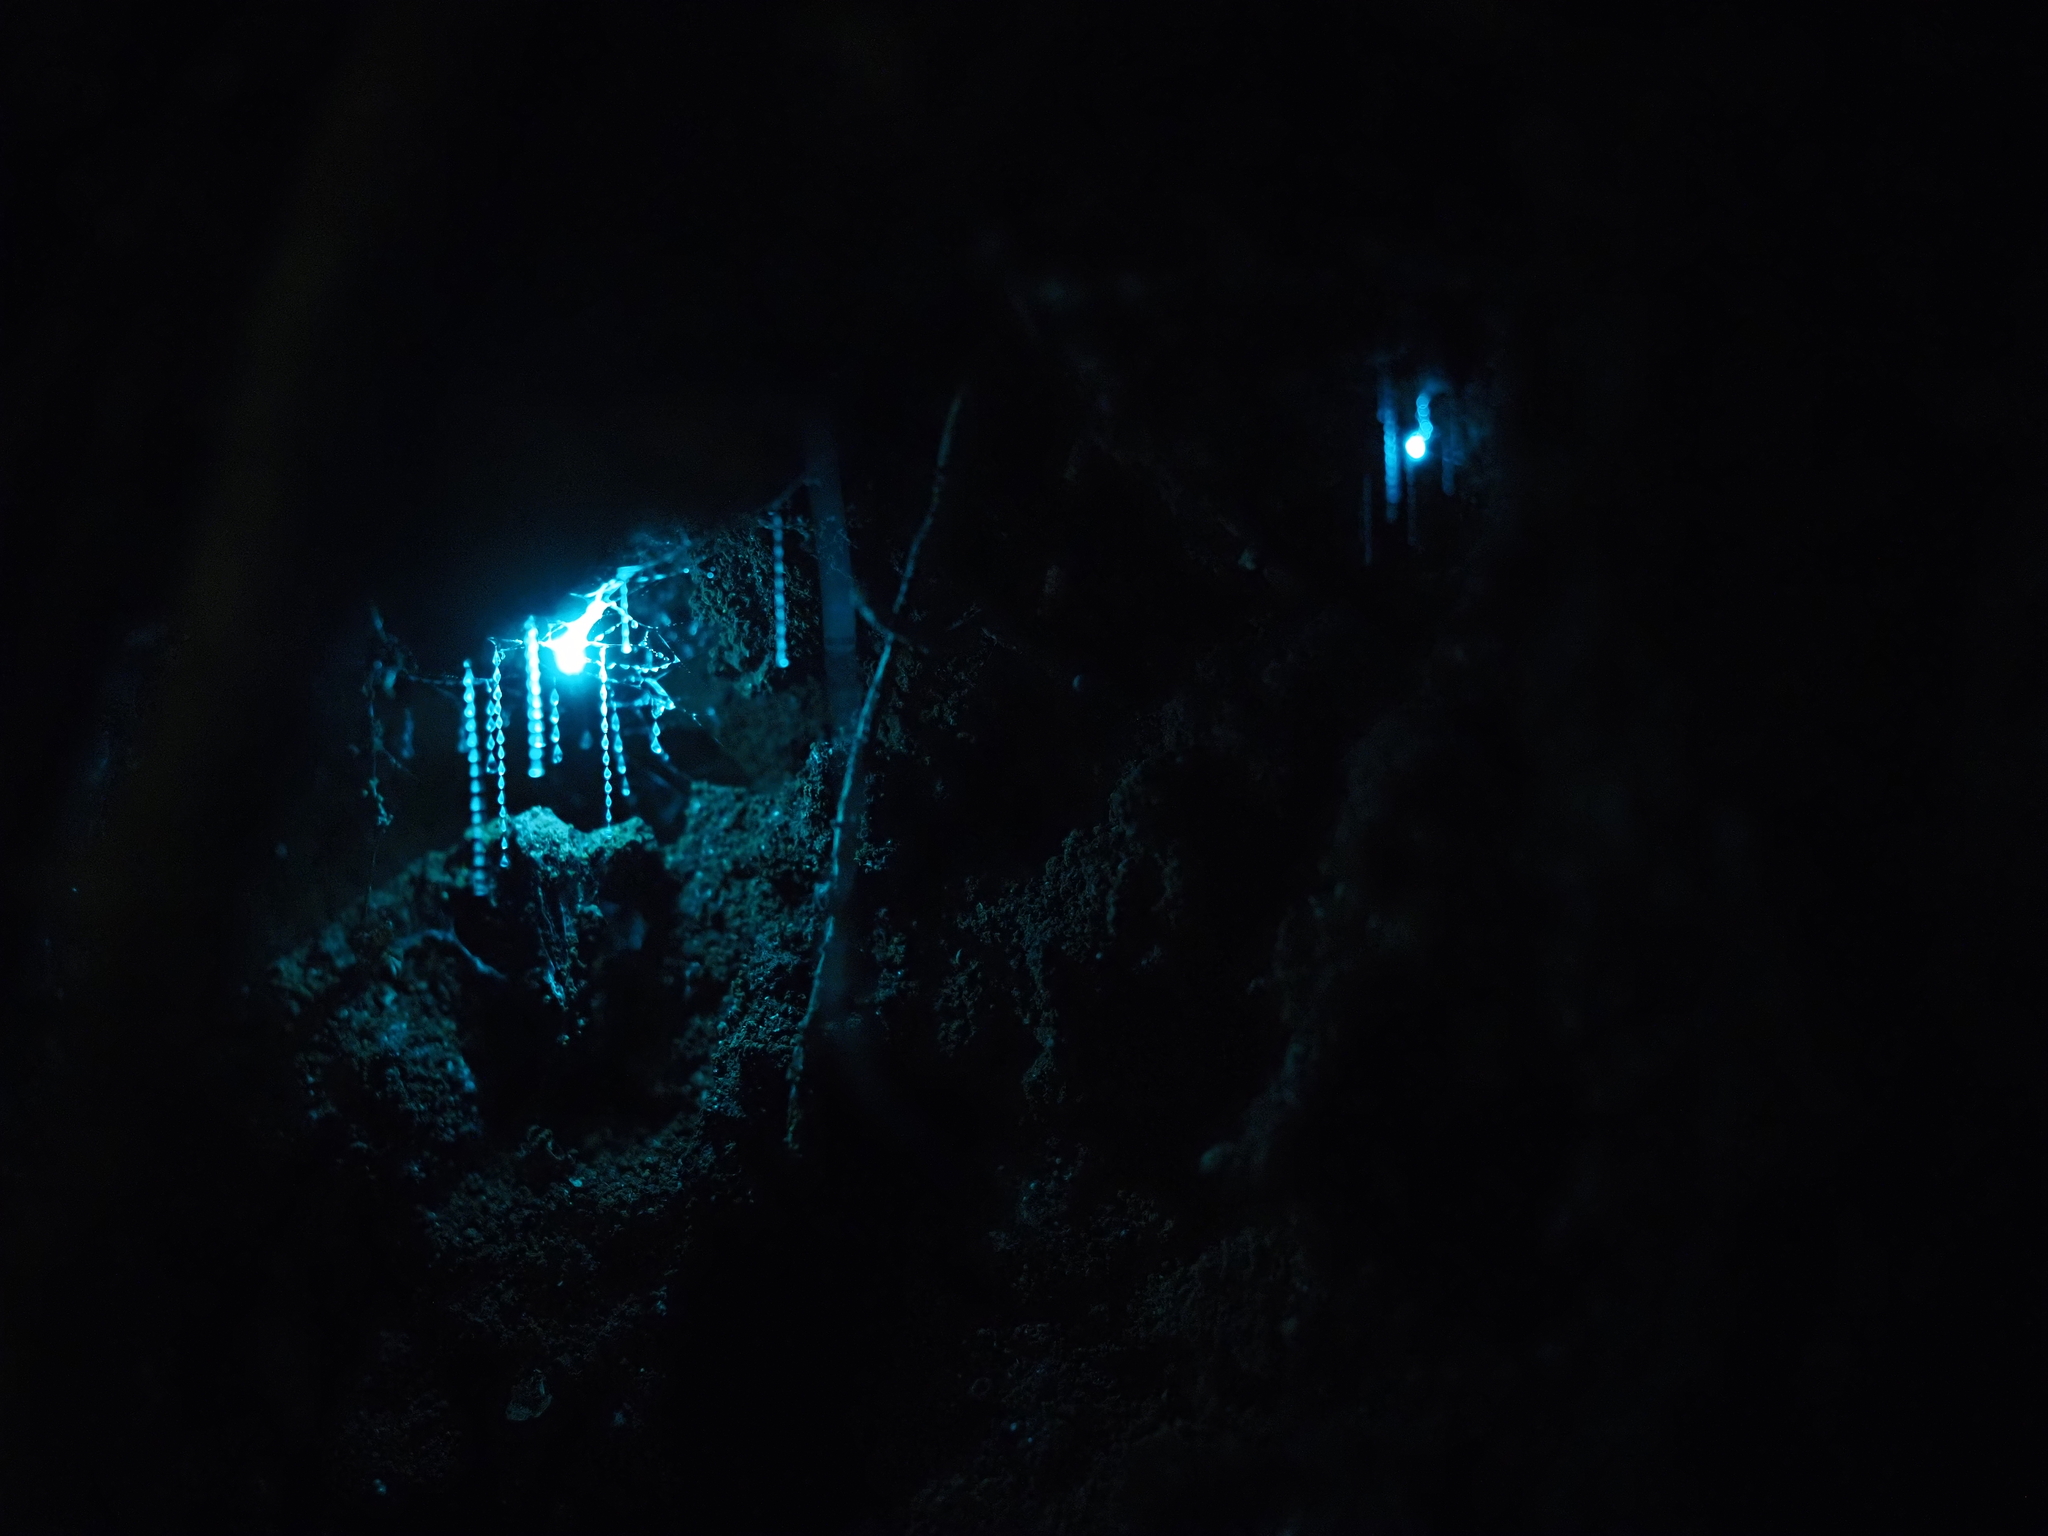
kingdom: Animalia
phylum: Arthropoda
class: Insecta
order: Diptera
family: Keroplatidae
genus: Arachnocampa
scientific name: Arachnocampa luminosa
